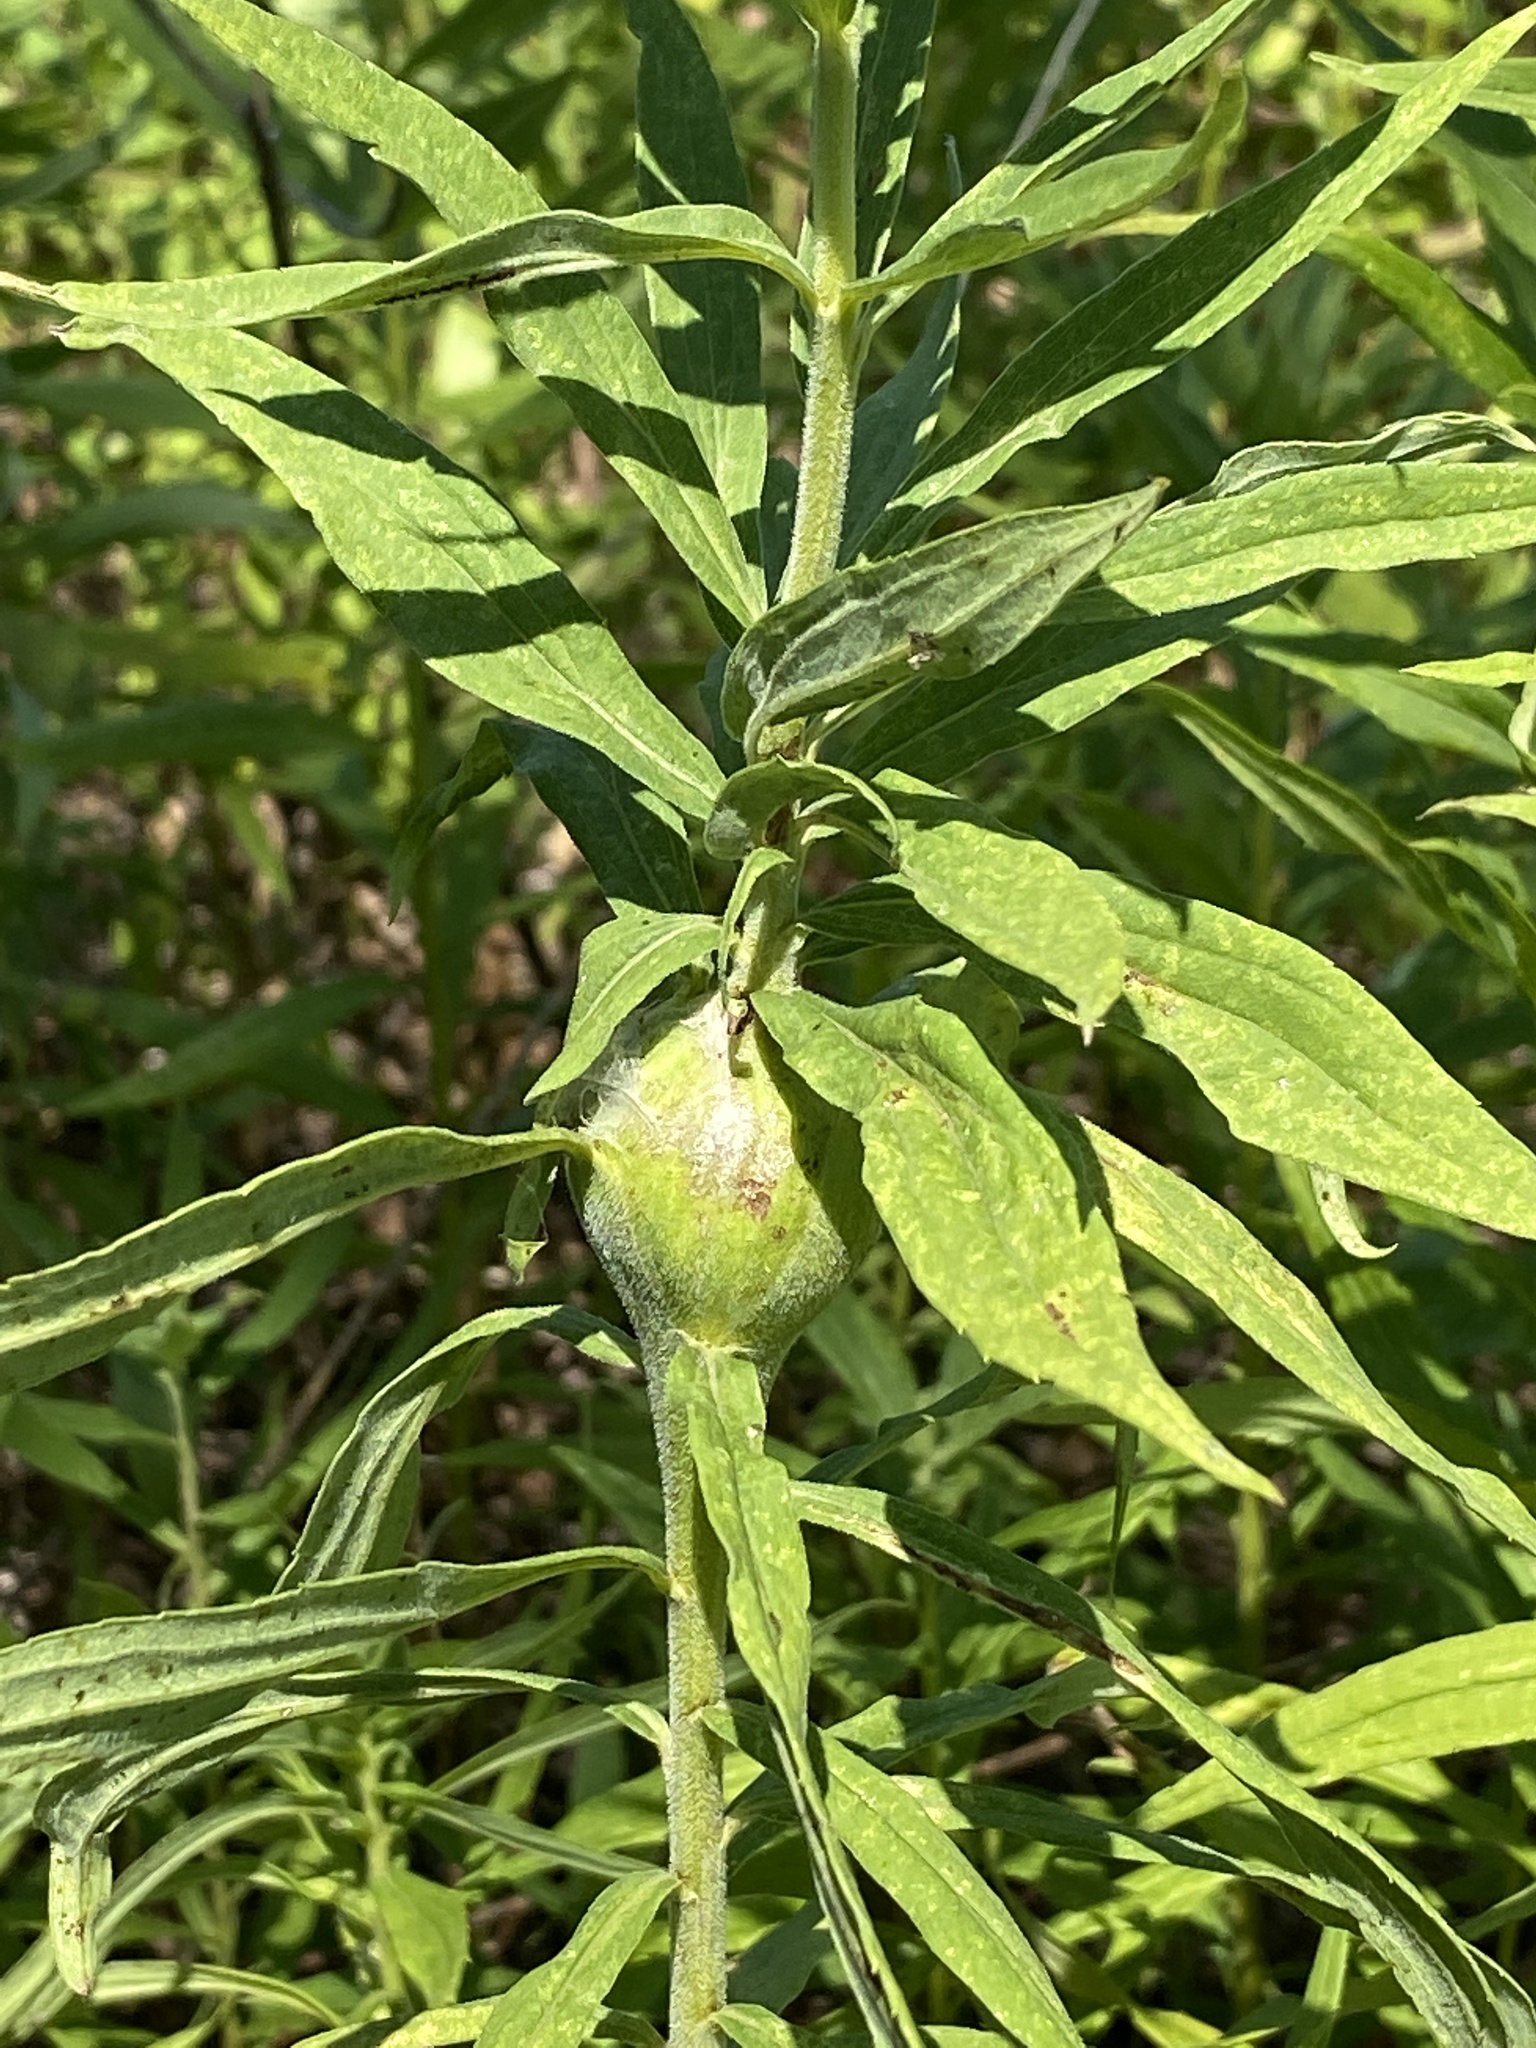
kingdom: Animalia
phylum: Arthropoda
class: Insecta
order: Diptera
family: Tephritidae
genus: Eurosta
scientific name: Eurosta solidaginis
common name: Goldenrod gall fly
